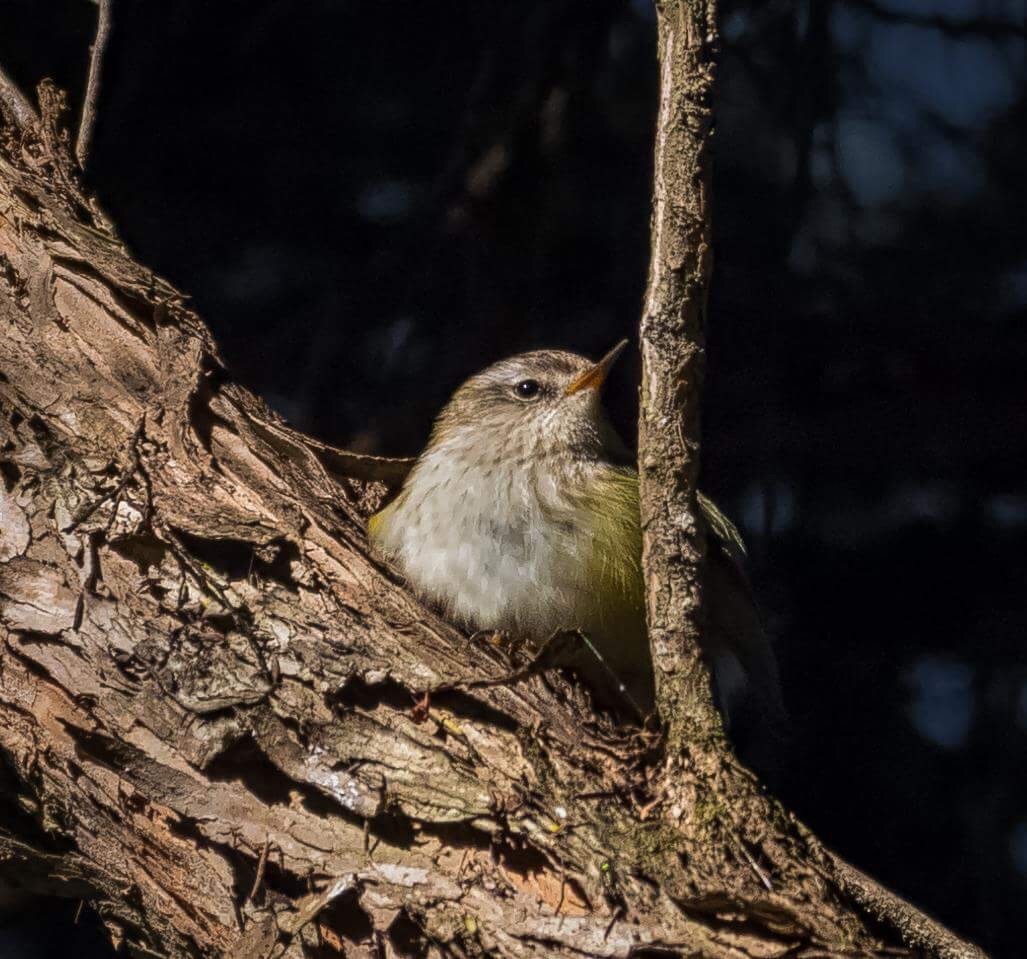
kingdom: Animalia
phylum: Chordata
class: Aves
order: Passeriformes
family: Acanthisittidae
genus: Acanthisitta
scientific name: Acanthisitta chloris
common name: Rifleman
